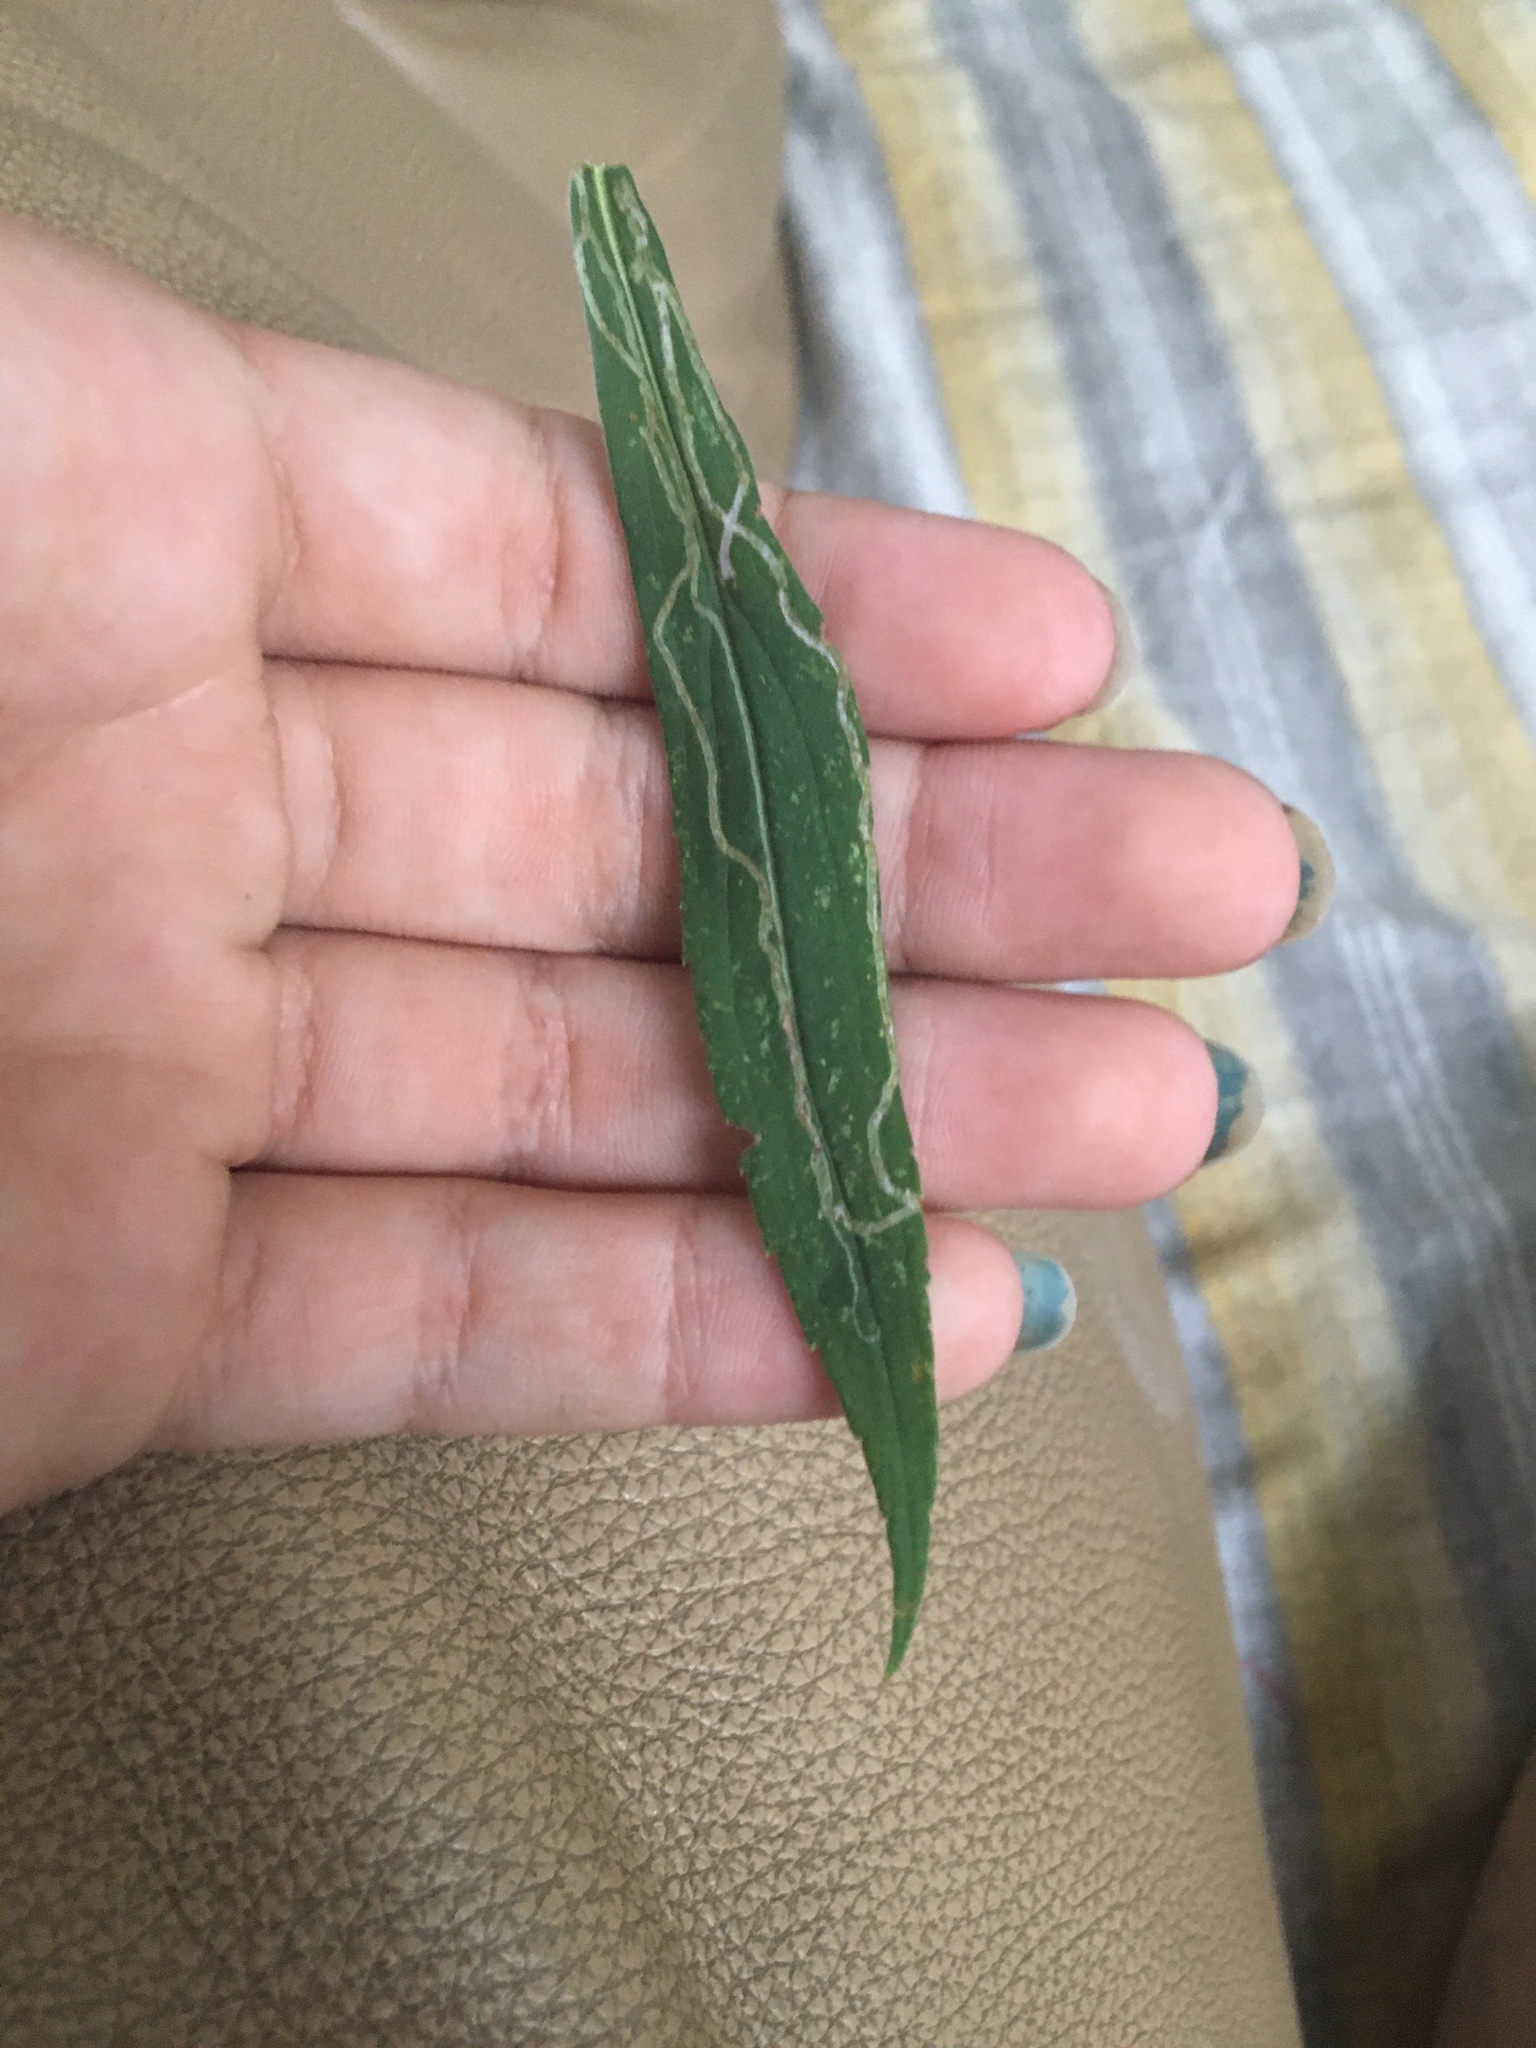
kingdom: Animalia
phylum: Arthropoda
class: Insecta
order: Diptera
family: Agromyzidae
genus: Ophiomyia
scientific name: Ophiomyia maura
